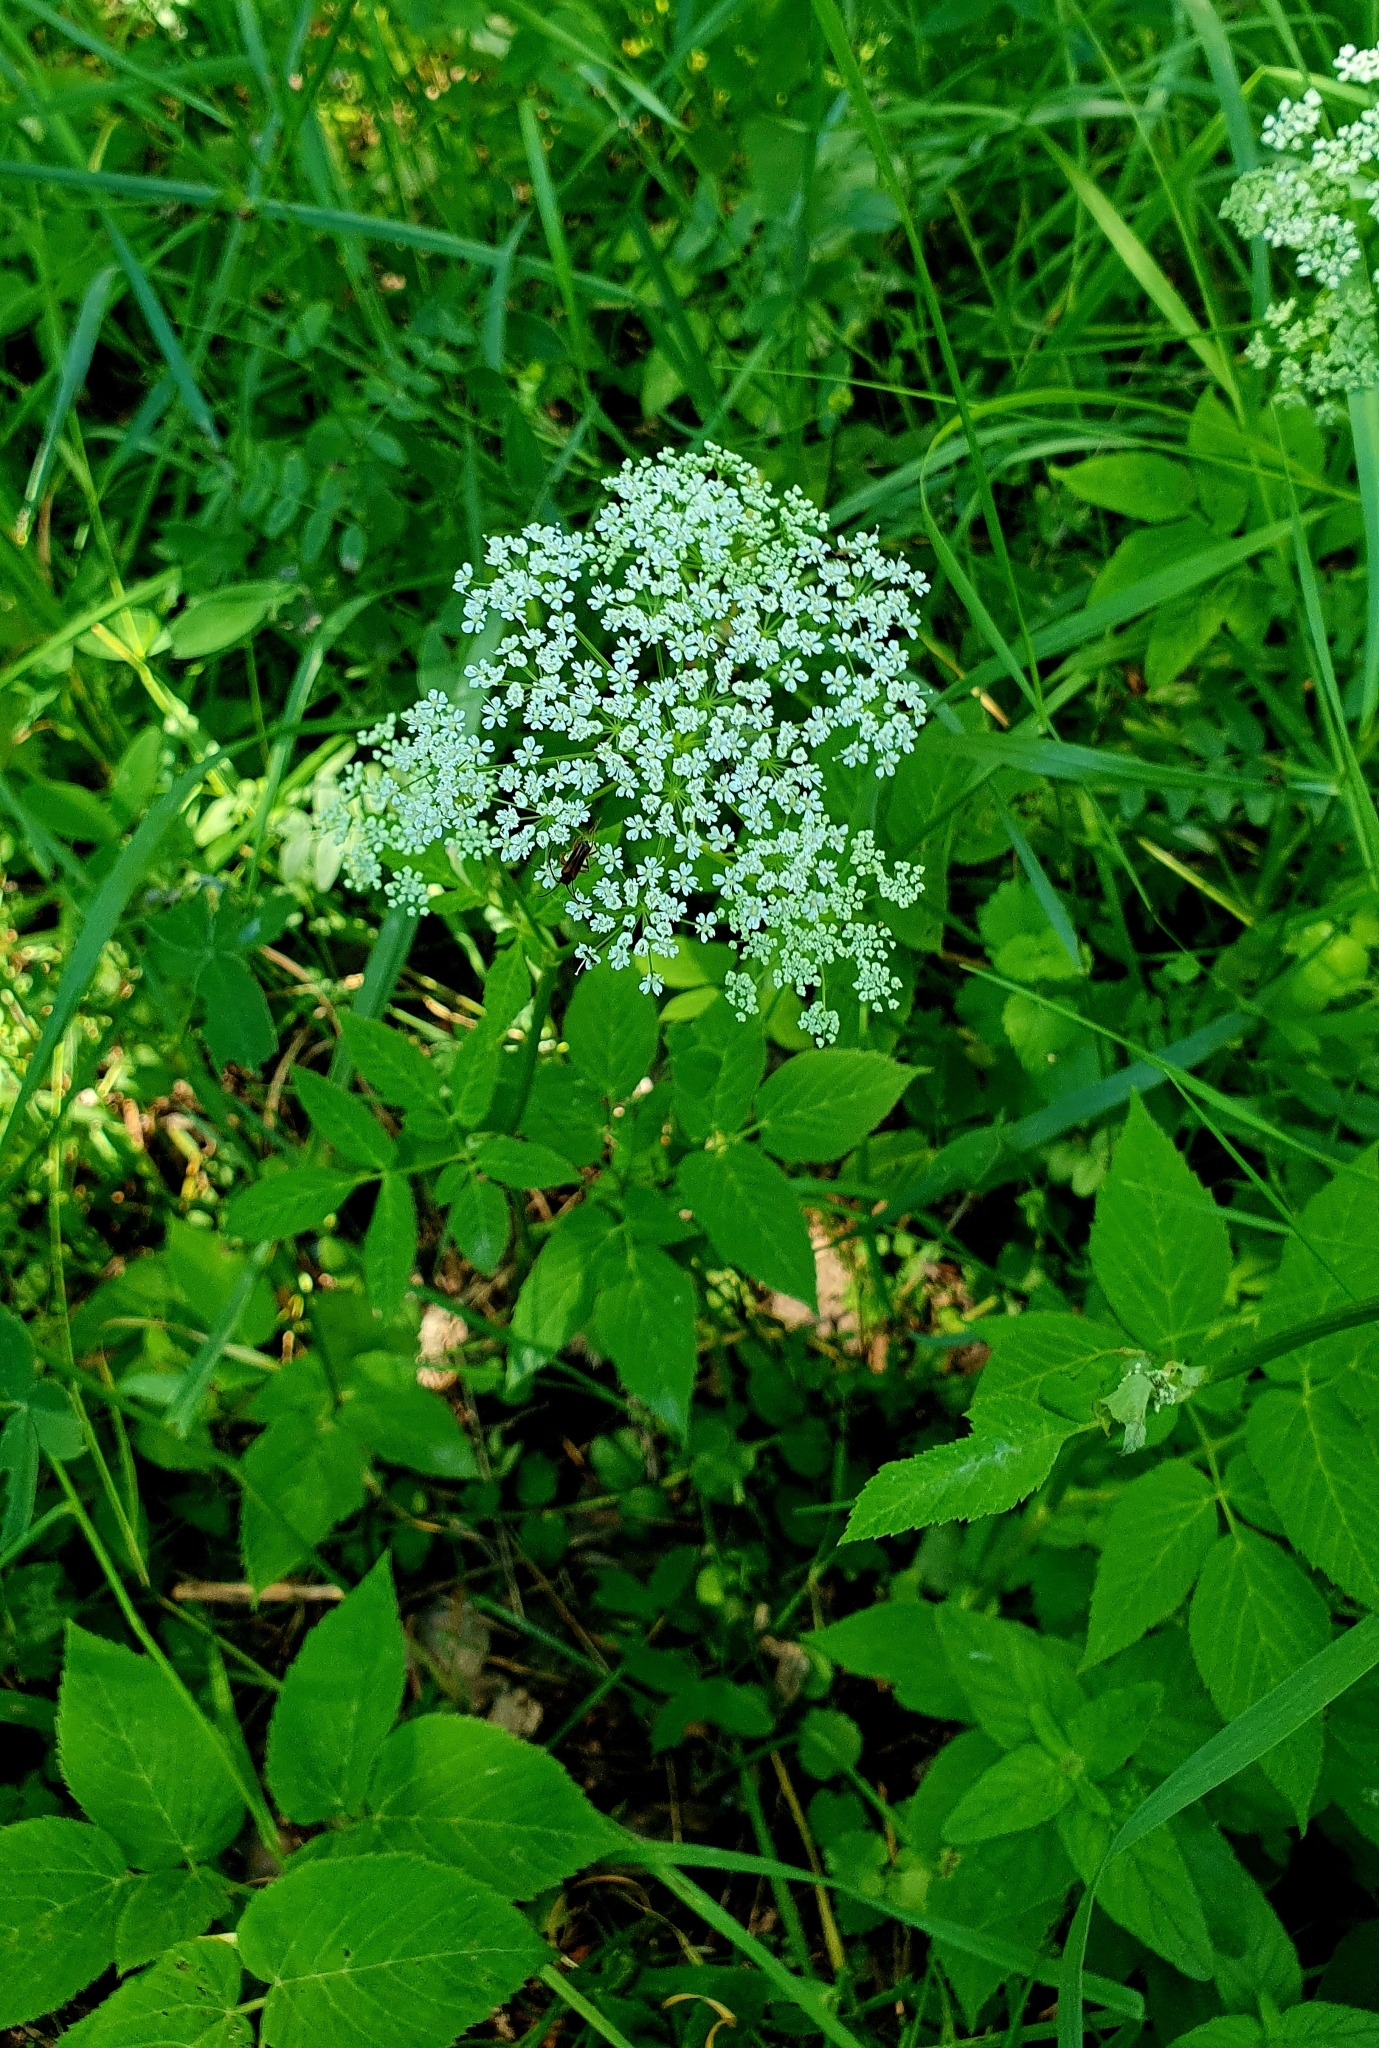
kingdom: Plantae
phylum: Tracheophyta
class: Magnoliopsida
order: Apiales
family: Apiaceae
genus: Aegopodium
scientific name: Aegopodium podagraria
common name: Ground-elder
